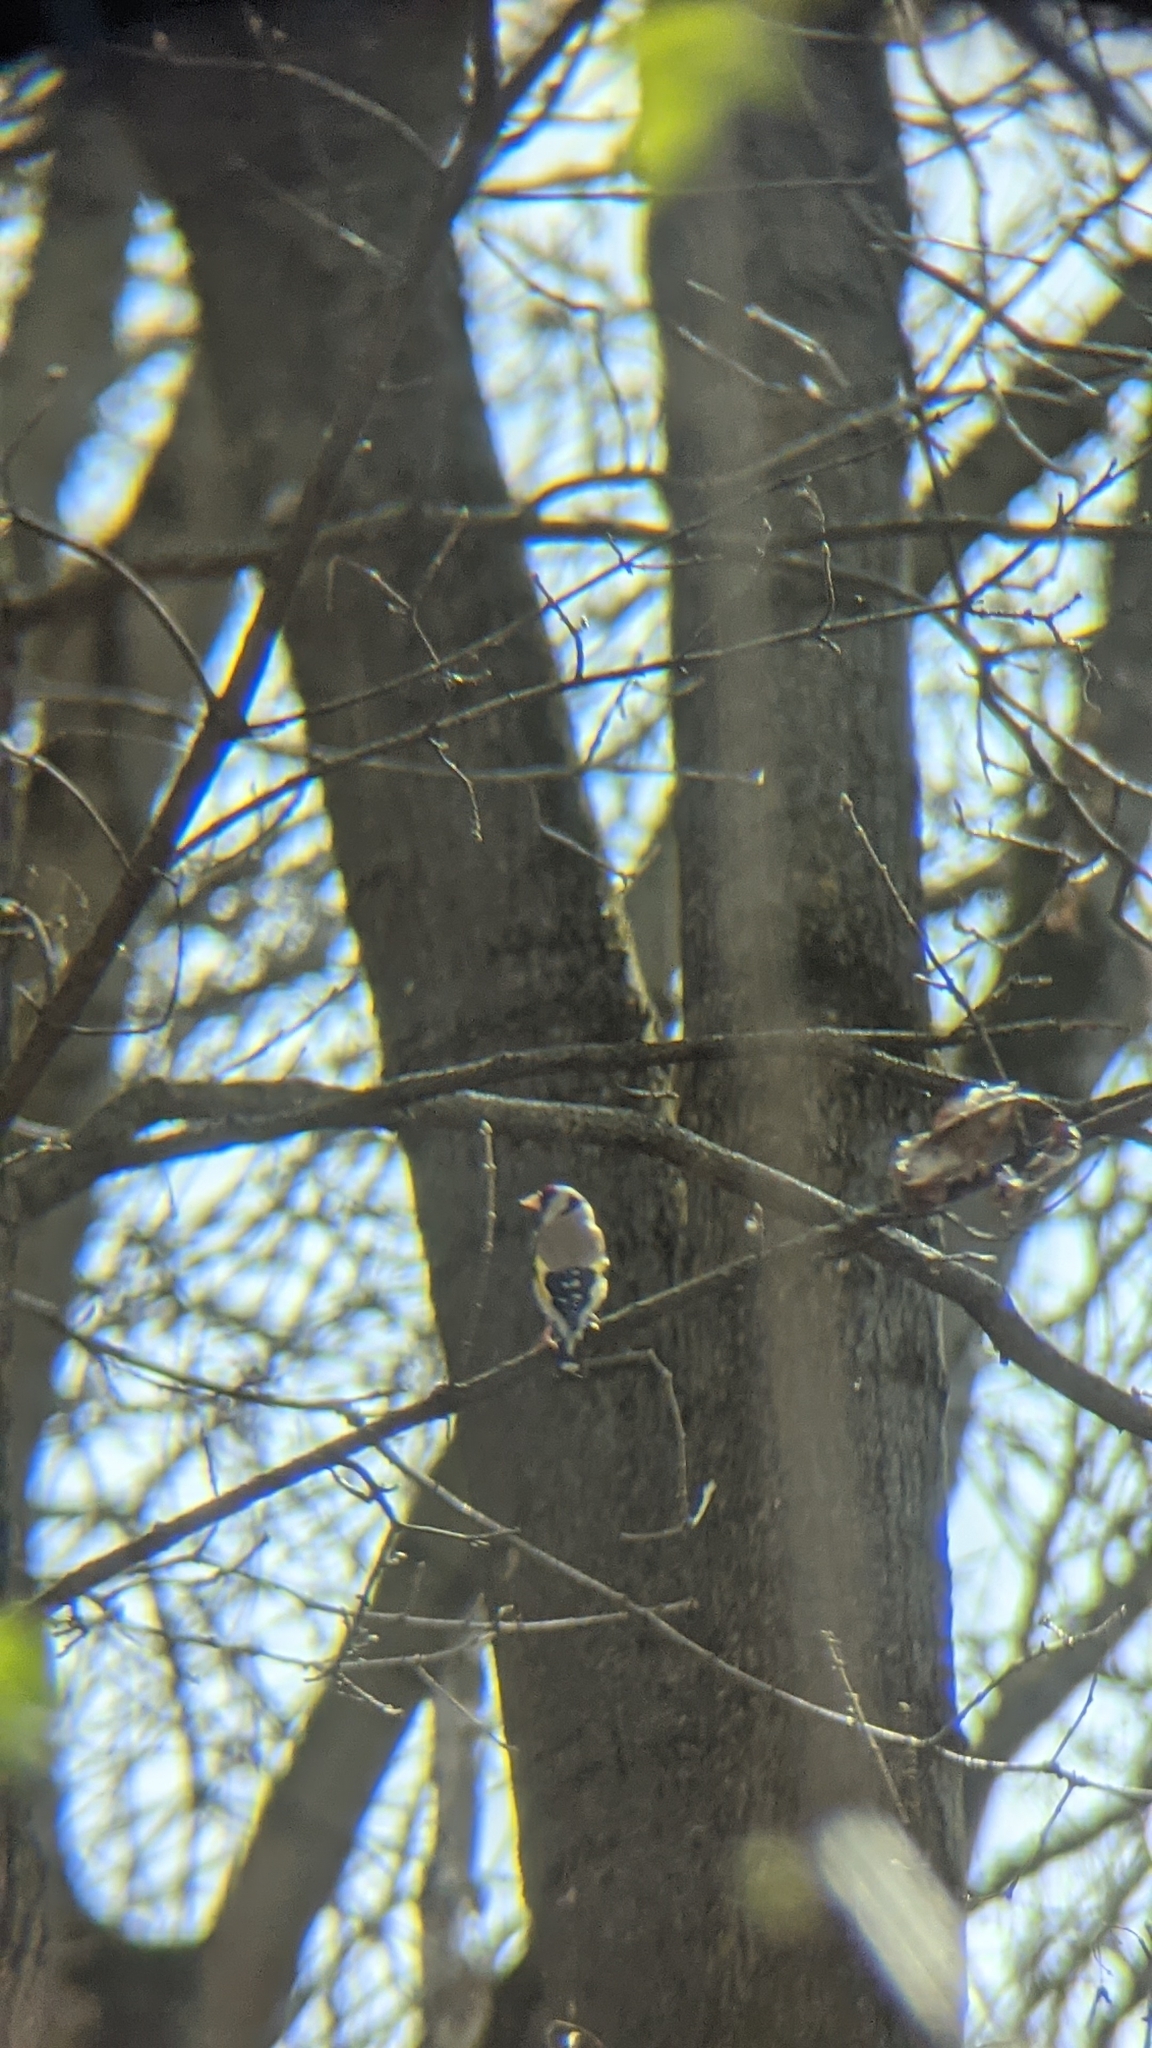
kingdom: Animalia
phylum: Chordata
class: Aves
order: Passeriformes
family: Fringillidae
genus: Carduelis
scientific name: Carduelis carduelis
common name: European goldfinch
